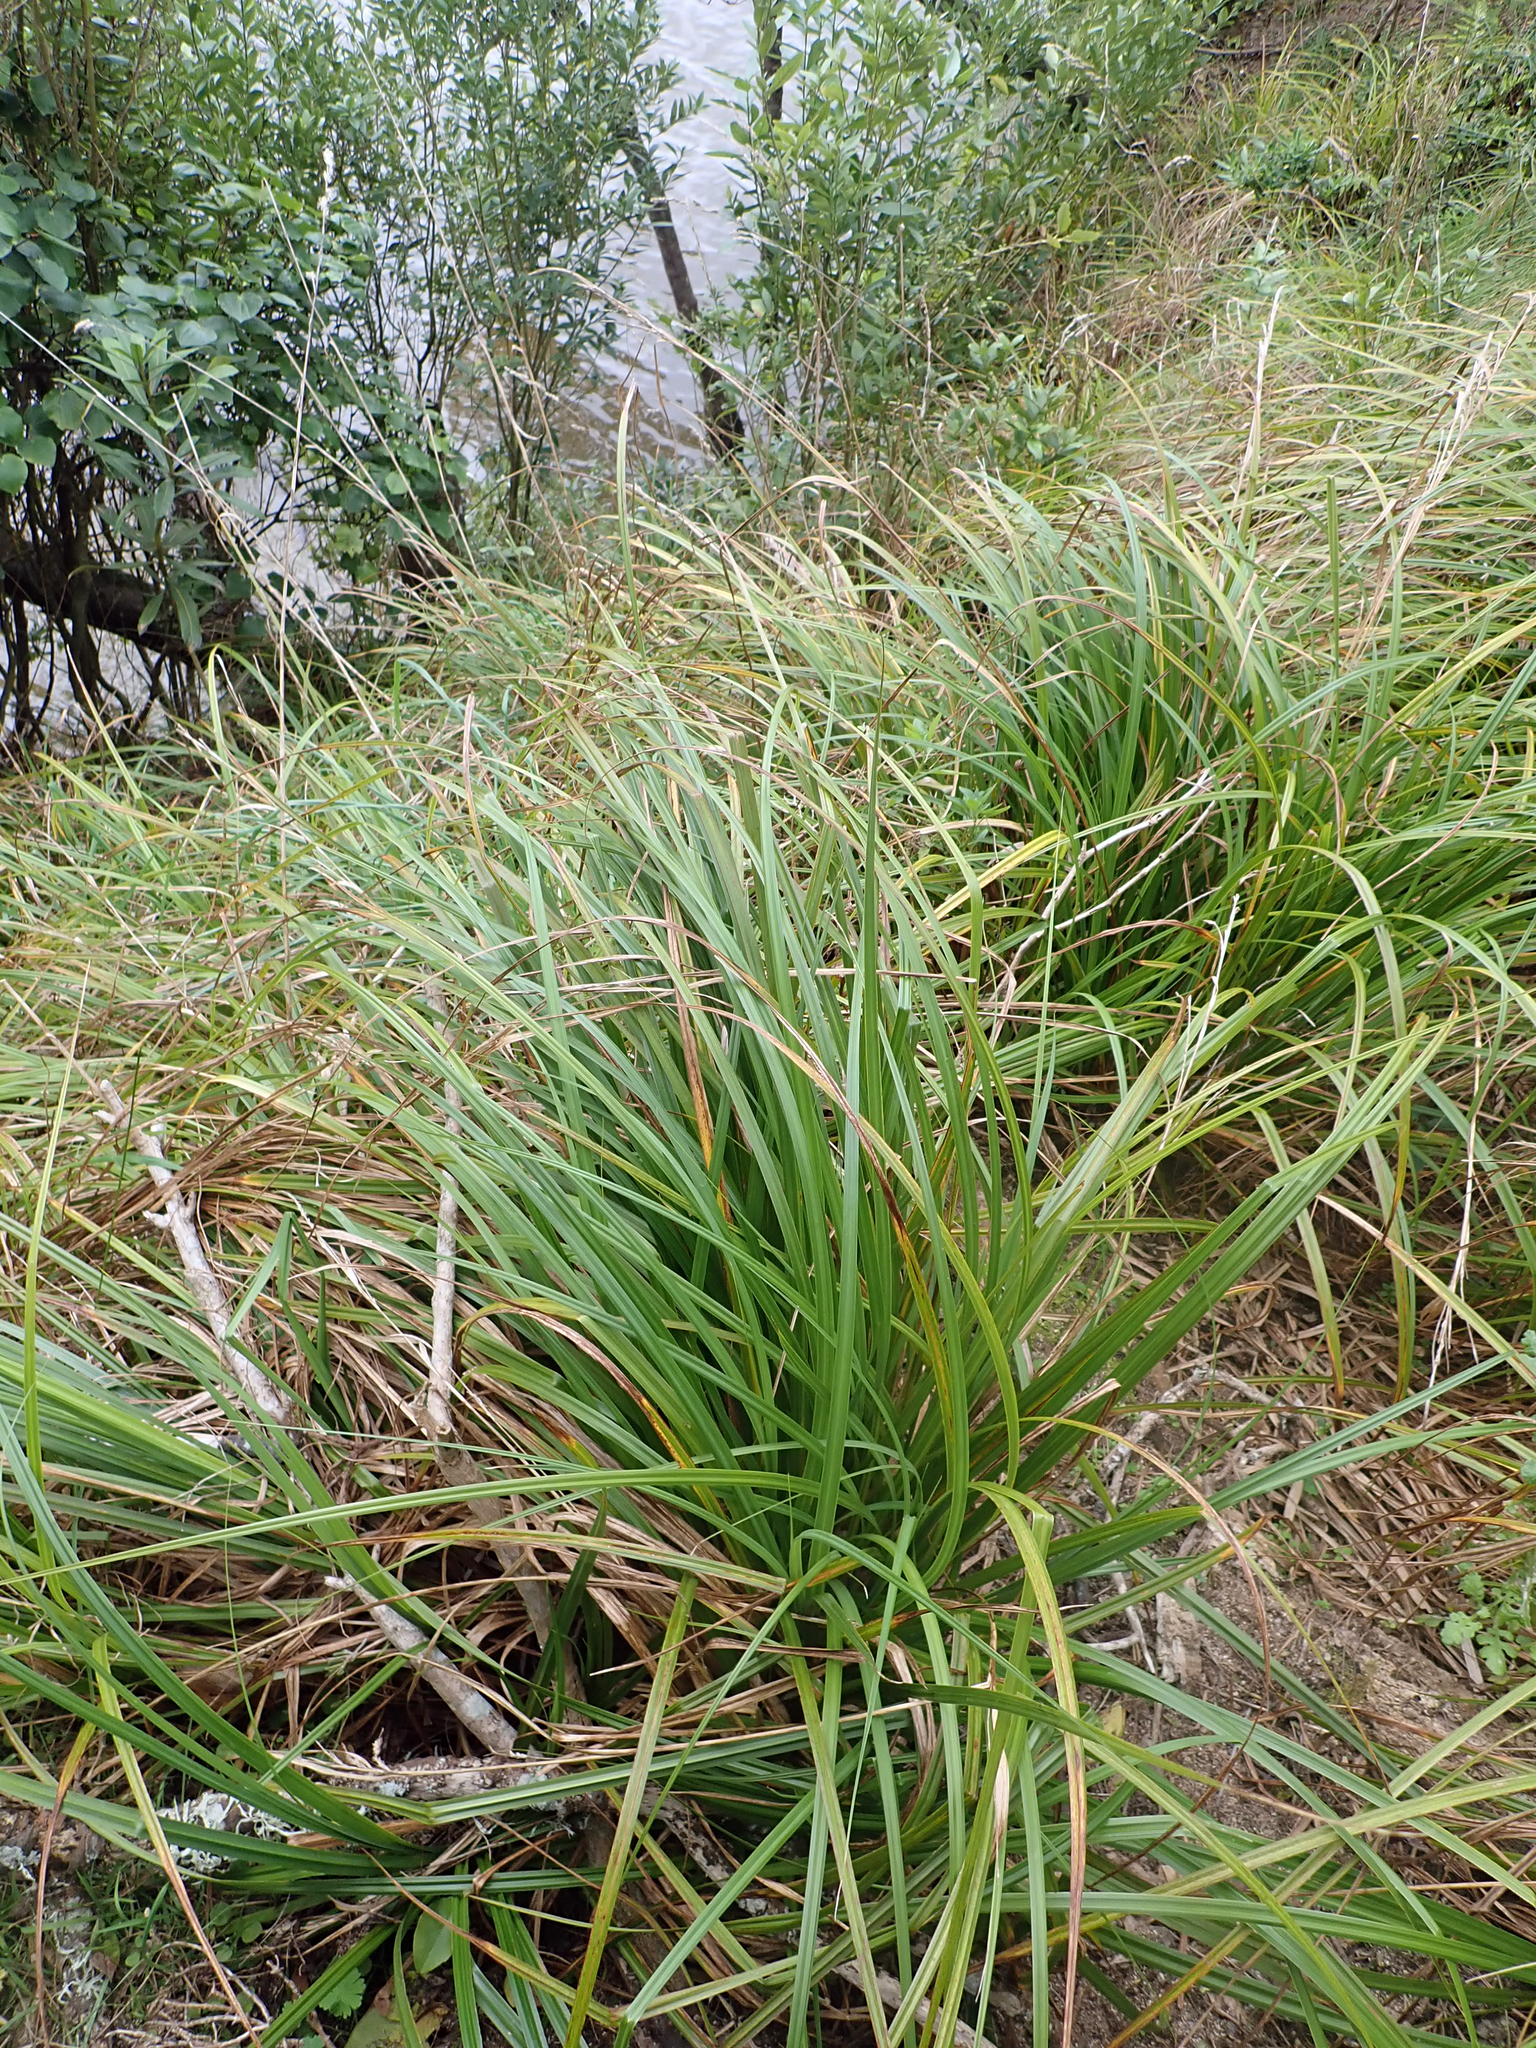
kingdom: Plantae
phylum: Tracheophyta
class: Liliopsida
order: Poales
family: Cyperaceae
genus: Carex
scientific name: Carex ventosa
